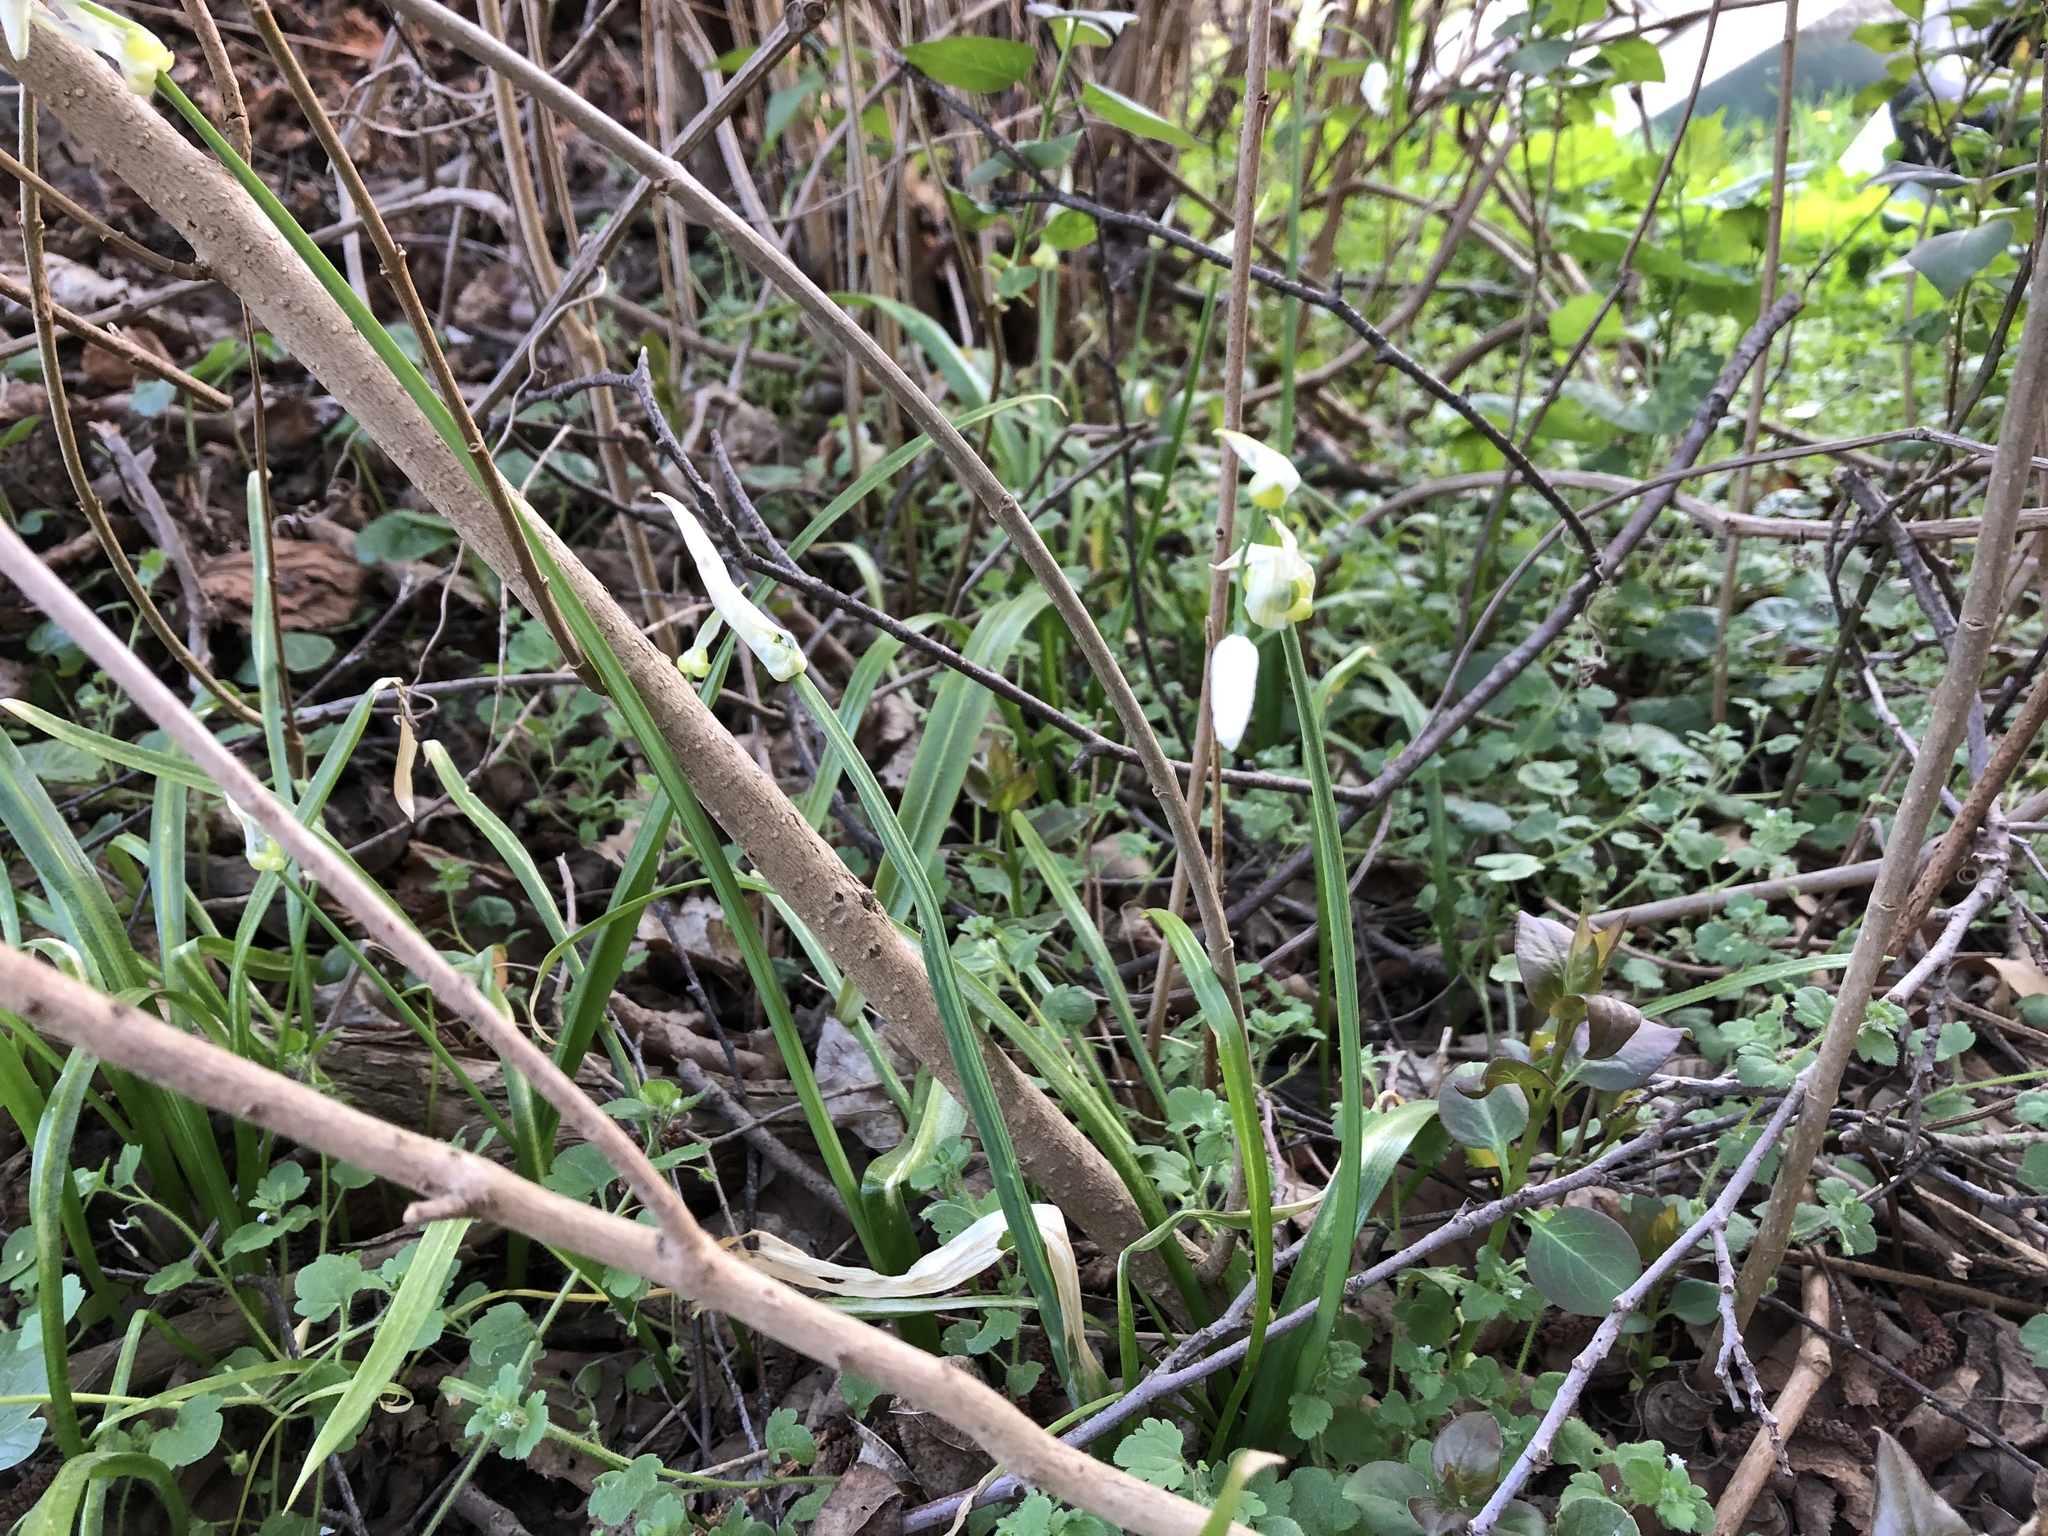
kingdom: Plantae
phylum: Tracheophyta
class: Liliopsida
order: Asparagales
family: Amaryllidaceae
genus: Allium
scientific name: Allium paradoxum
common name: Few-flowered garlic
